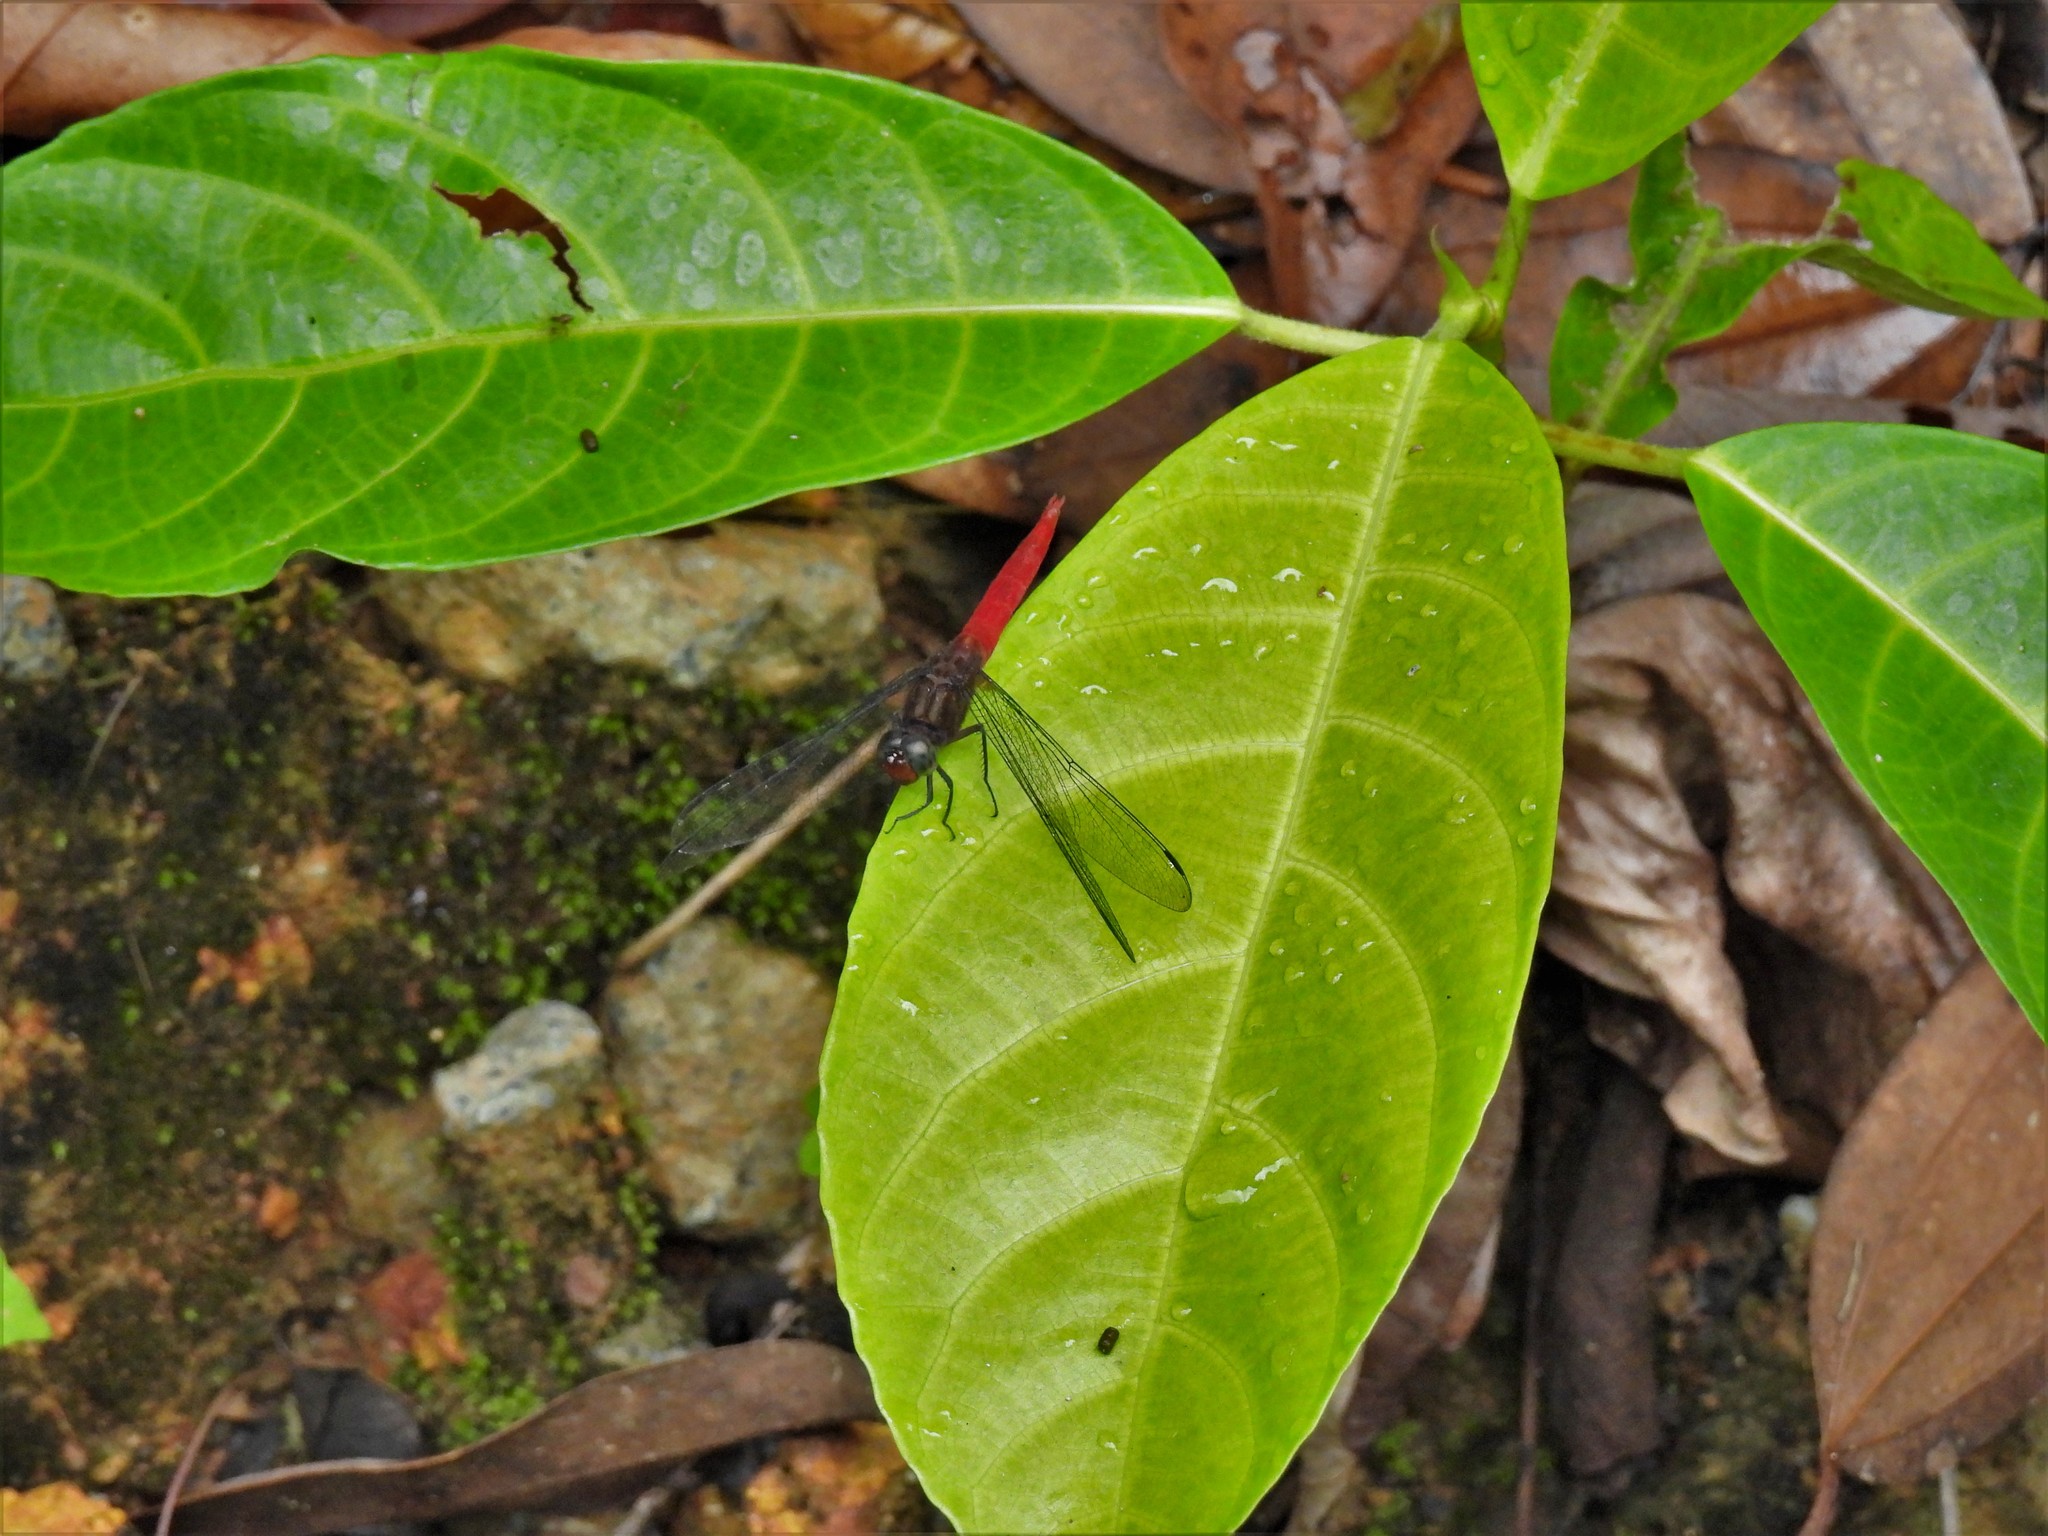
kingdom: Animalia
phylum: Arthropoda
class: Insecta
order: Odonata
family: Libellulidae
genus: Orthetrum
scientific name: Orthetrum chrysis
